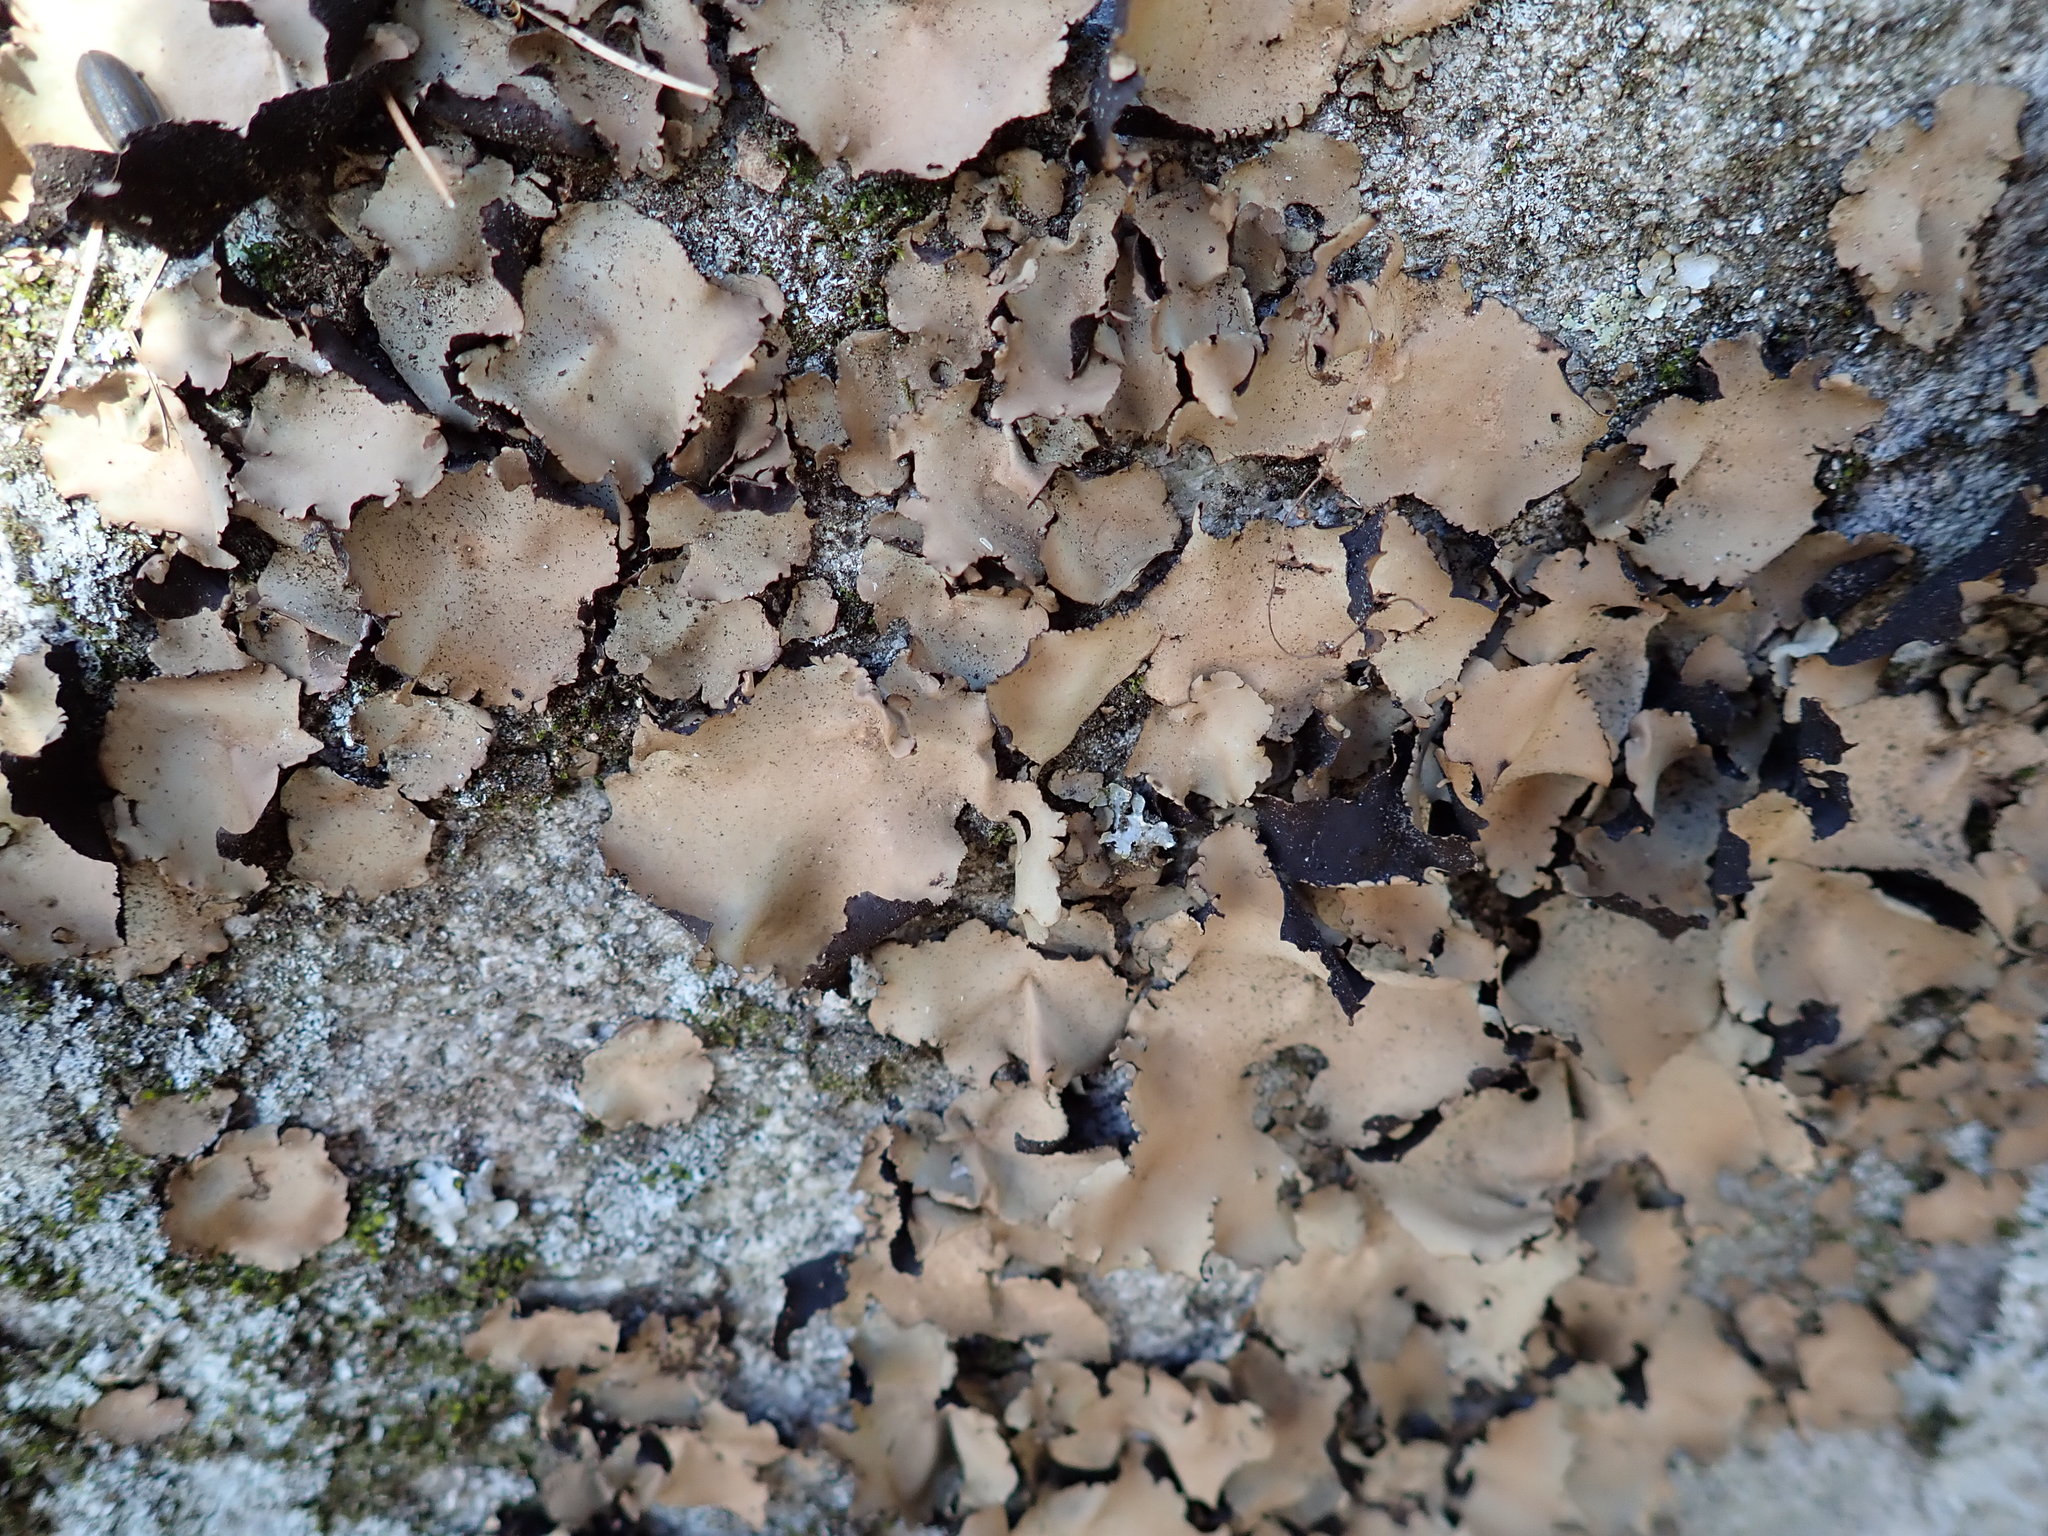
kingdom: Fungi
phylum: Ascomycota
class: Lecanoromycetes
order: Umbilicariales
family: Umbilicariaceae
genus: Umbilicaria
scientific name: Umbilicaria mammulata
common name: Smooth rock tripe
